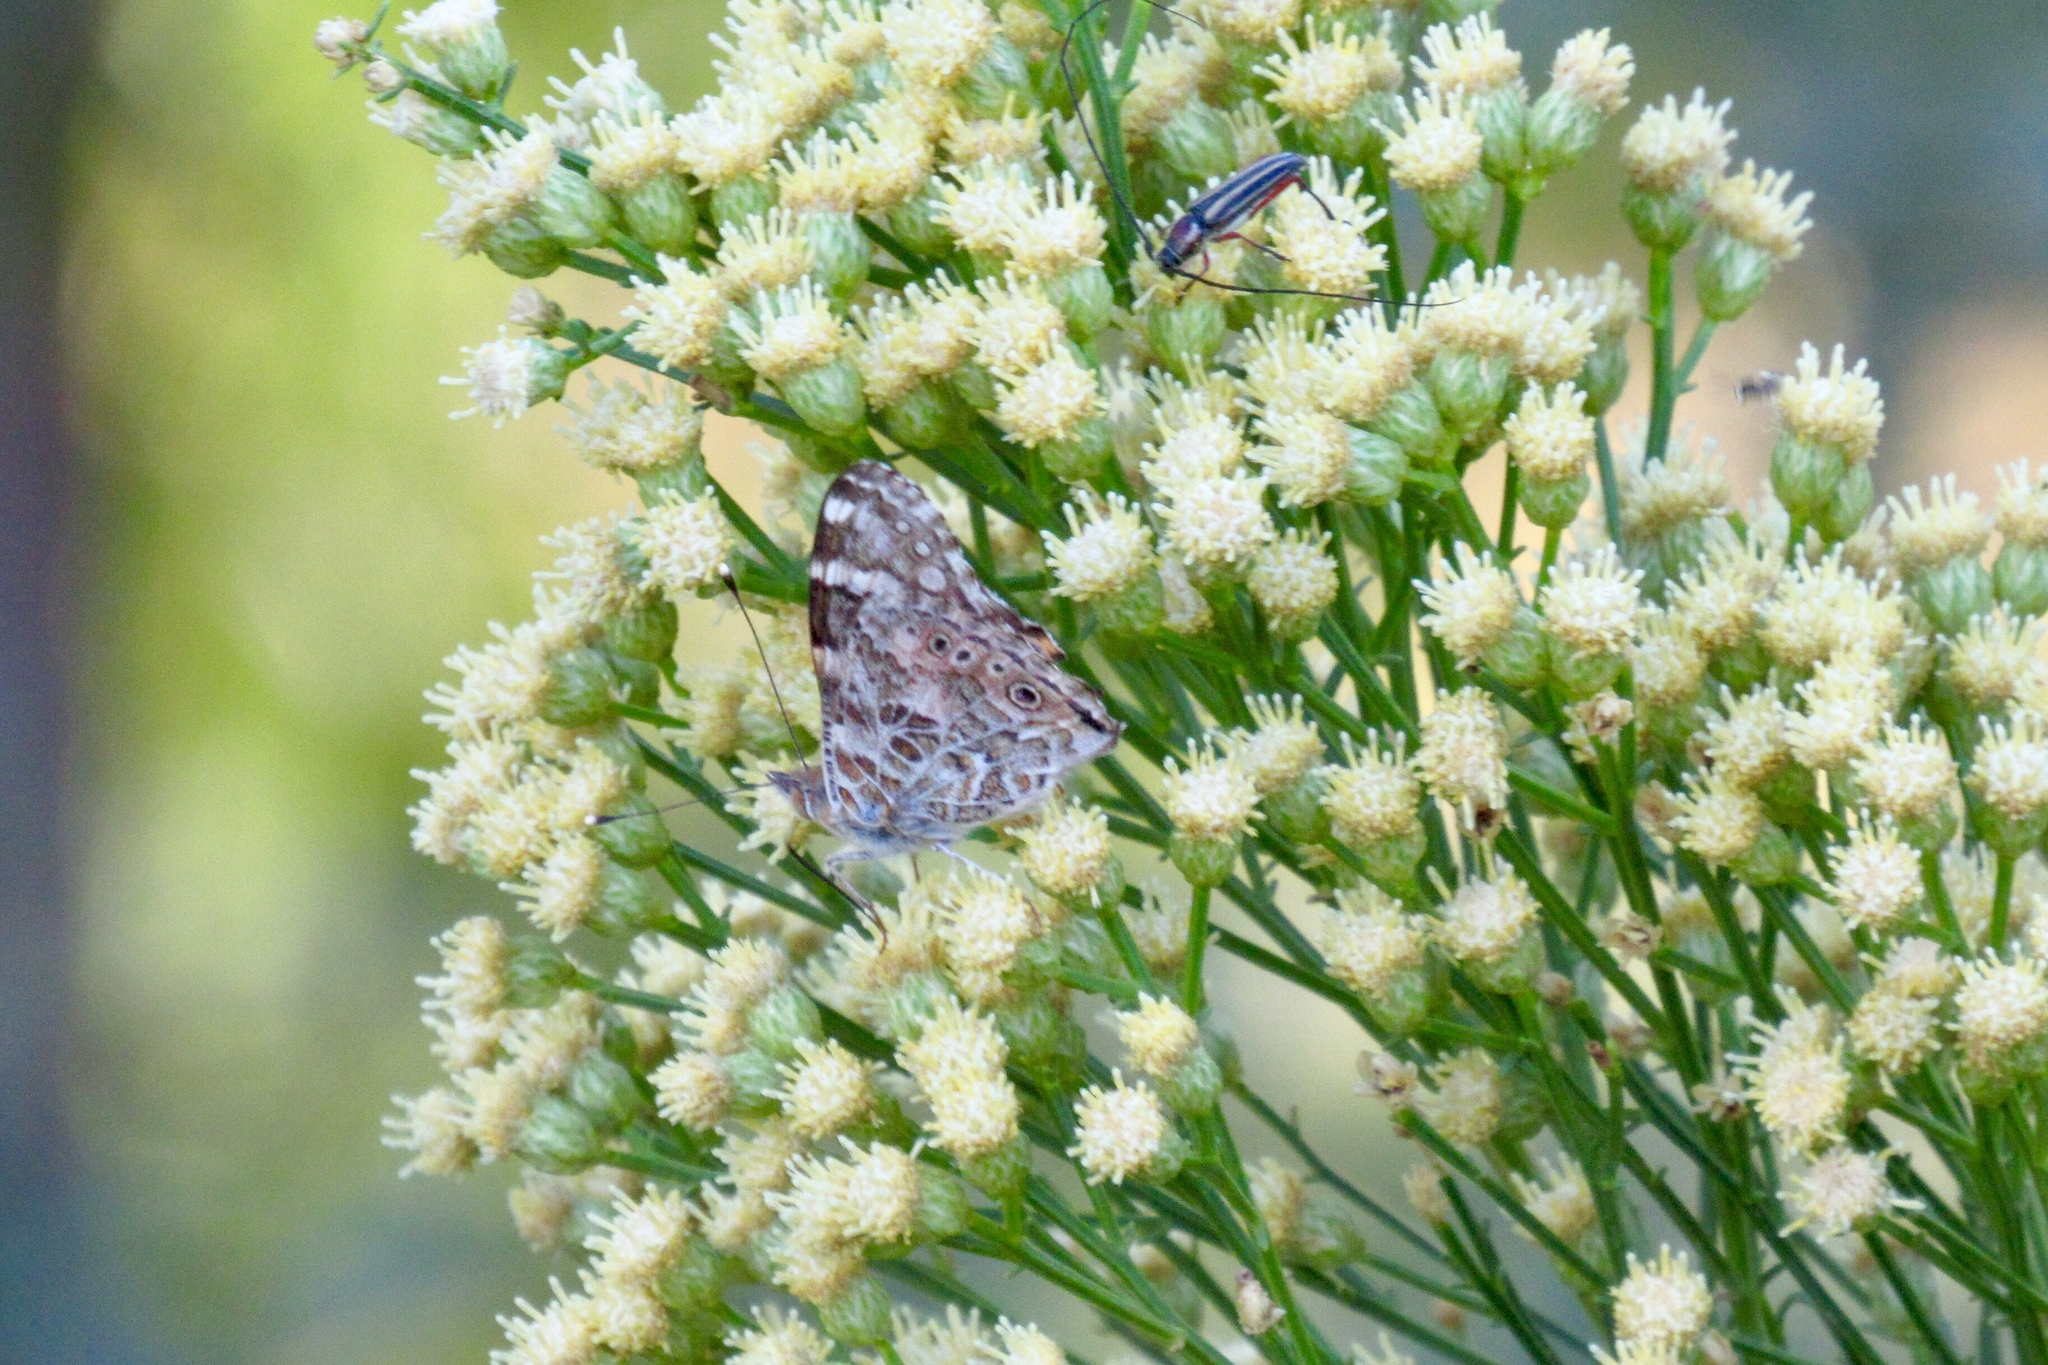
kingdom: Animalia
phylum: Arthropoda
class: Insecta
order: Lepidoptera
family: Nymphalidae
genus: Vanessa
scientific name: Vanessa cardui
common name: Painted lady
